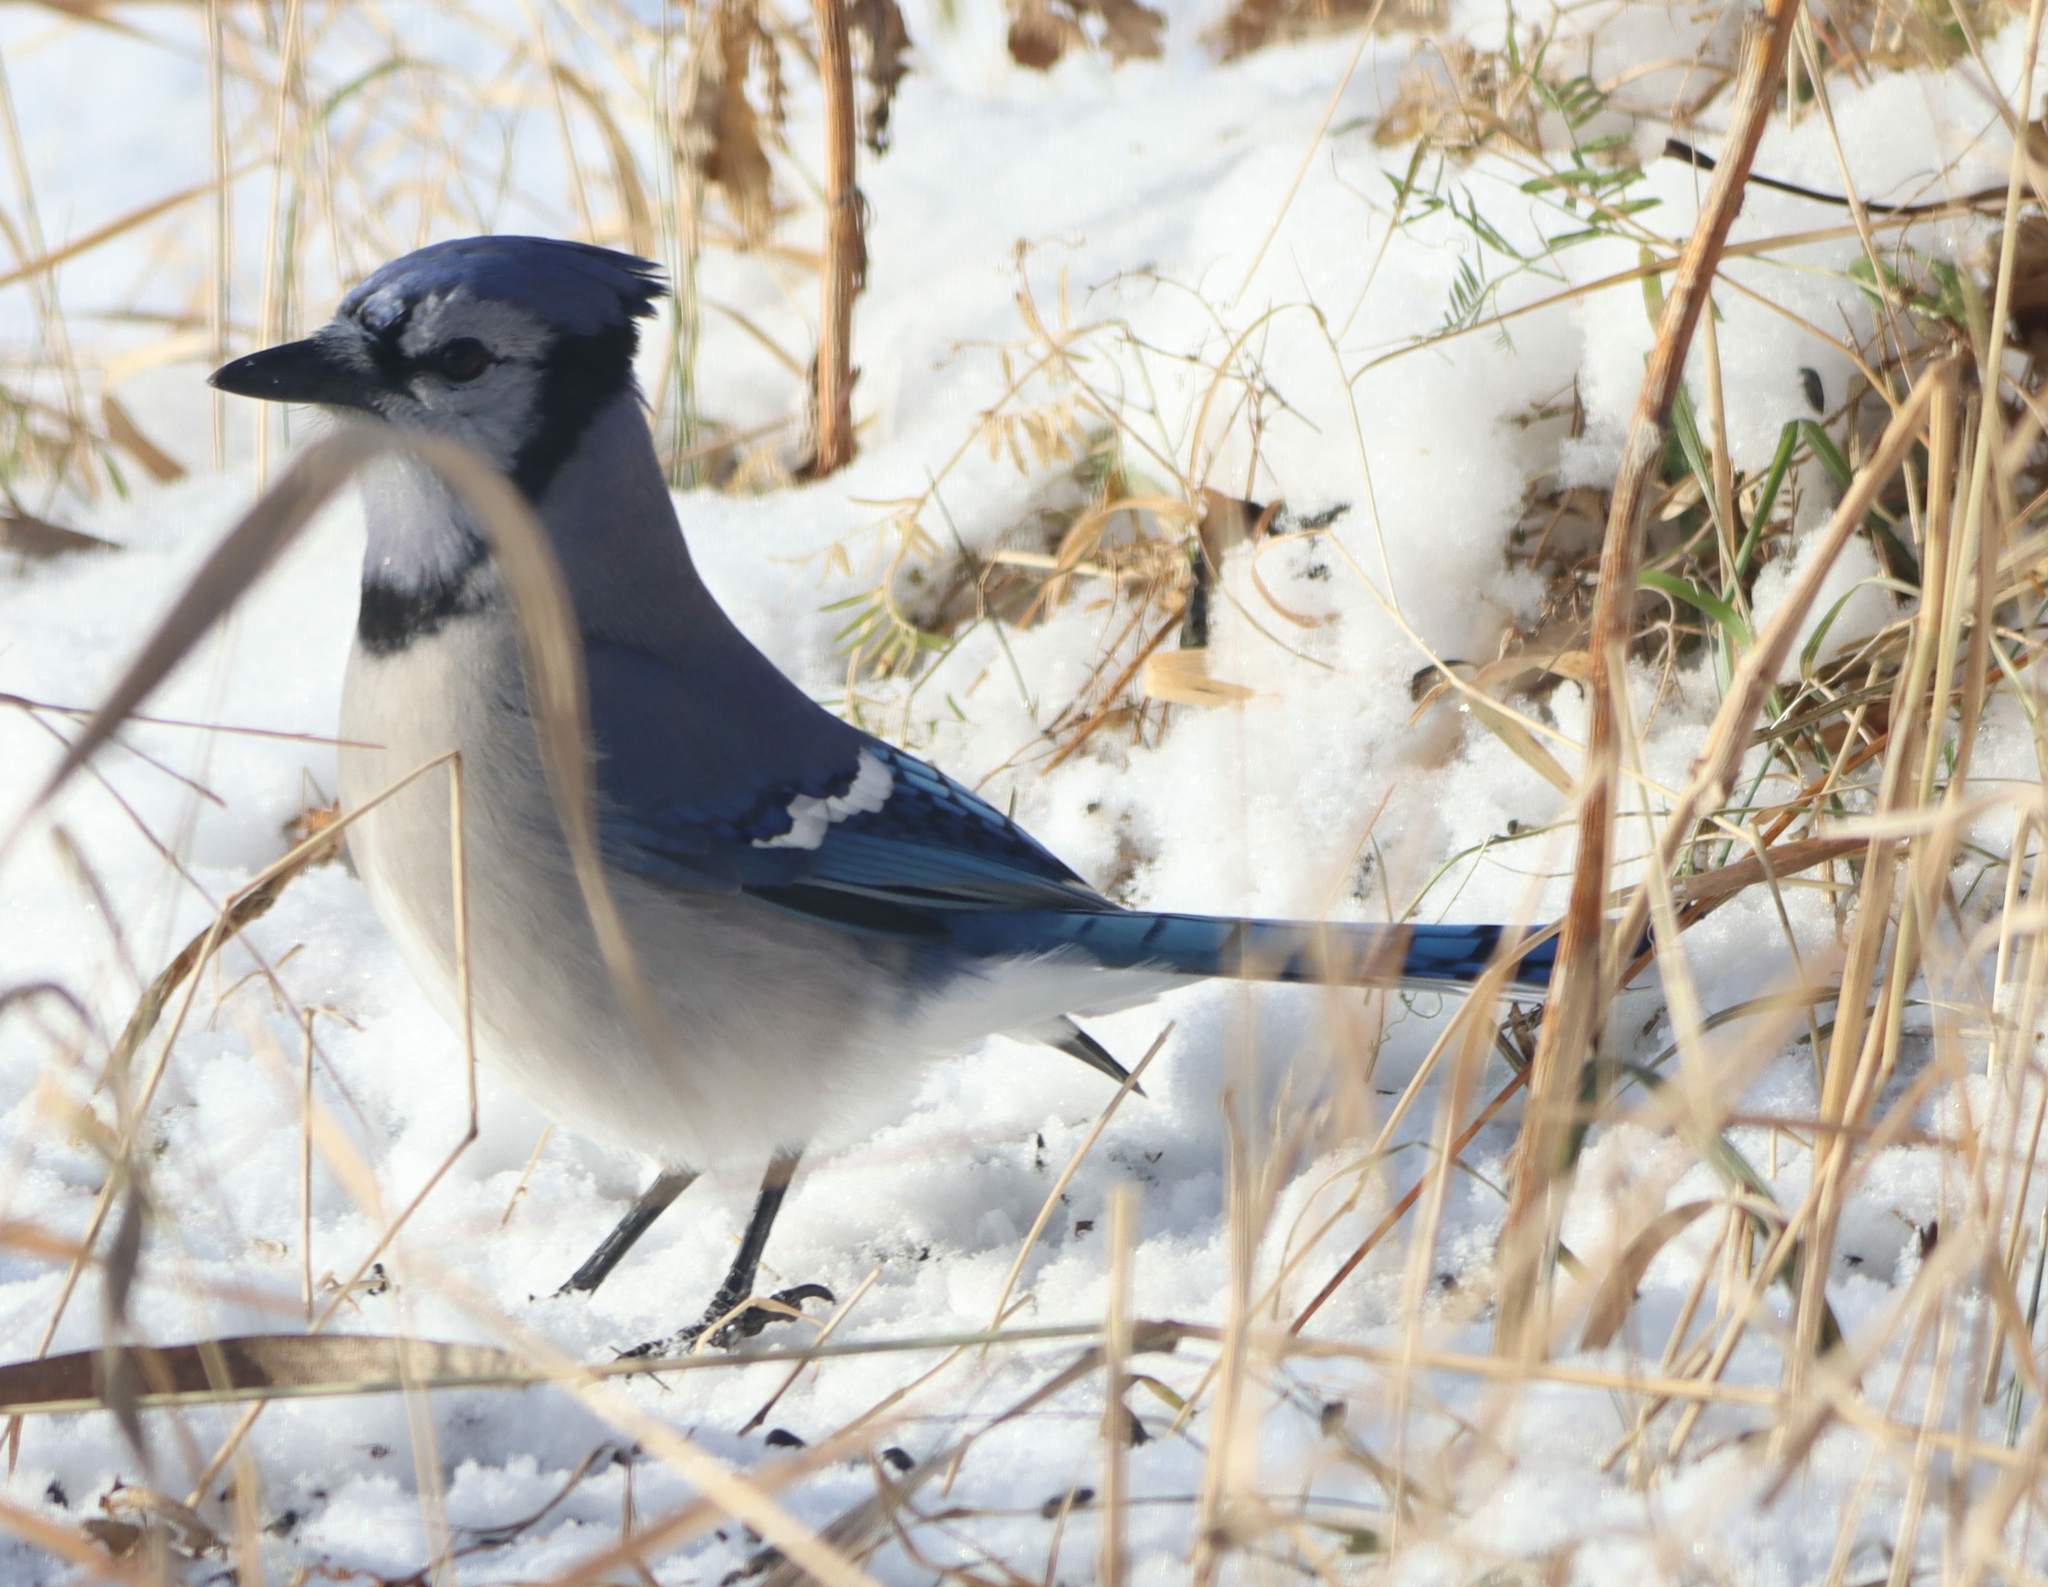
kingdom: Animalia
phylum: Chordata
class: Aves
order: Passeriformes
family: Corvidae
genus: Cyanocitta
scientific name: Cyanocitta cristata
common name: Blue jay
